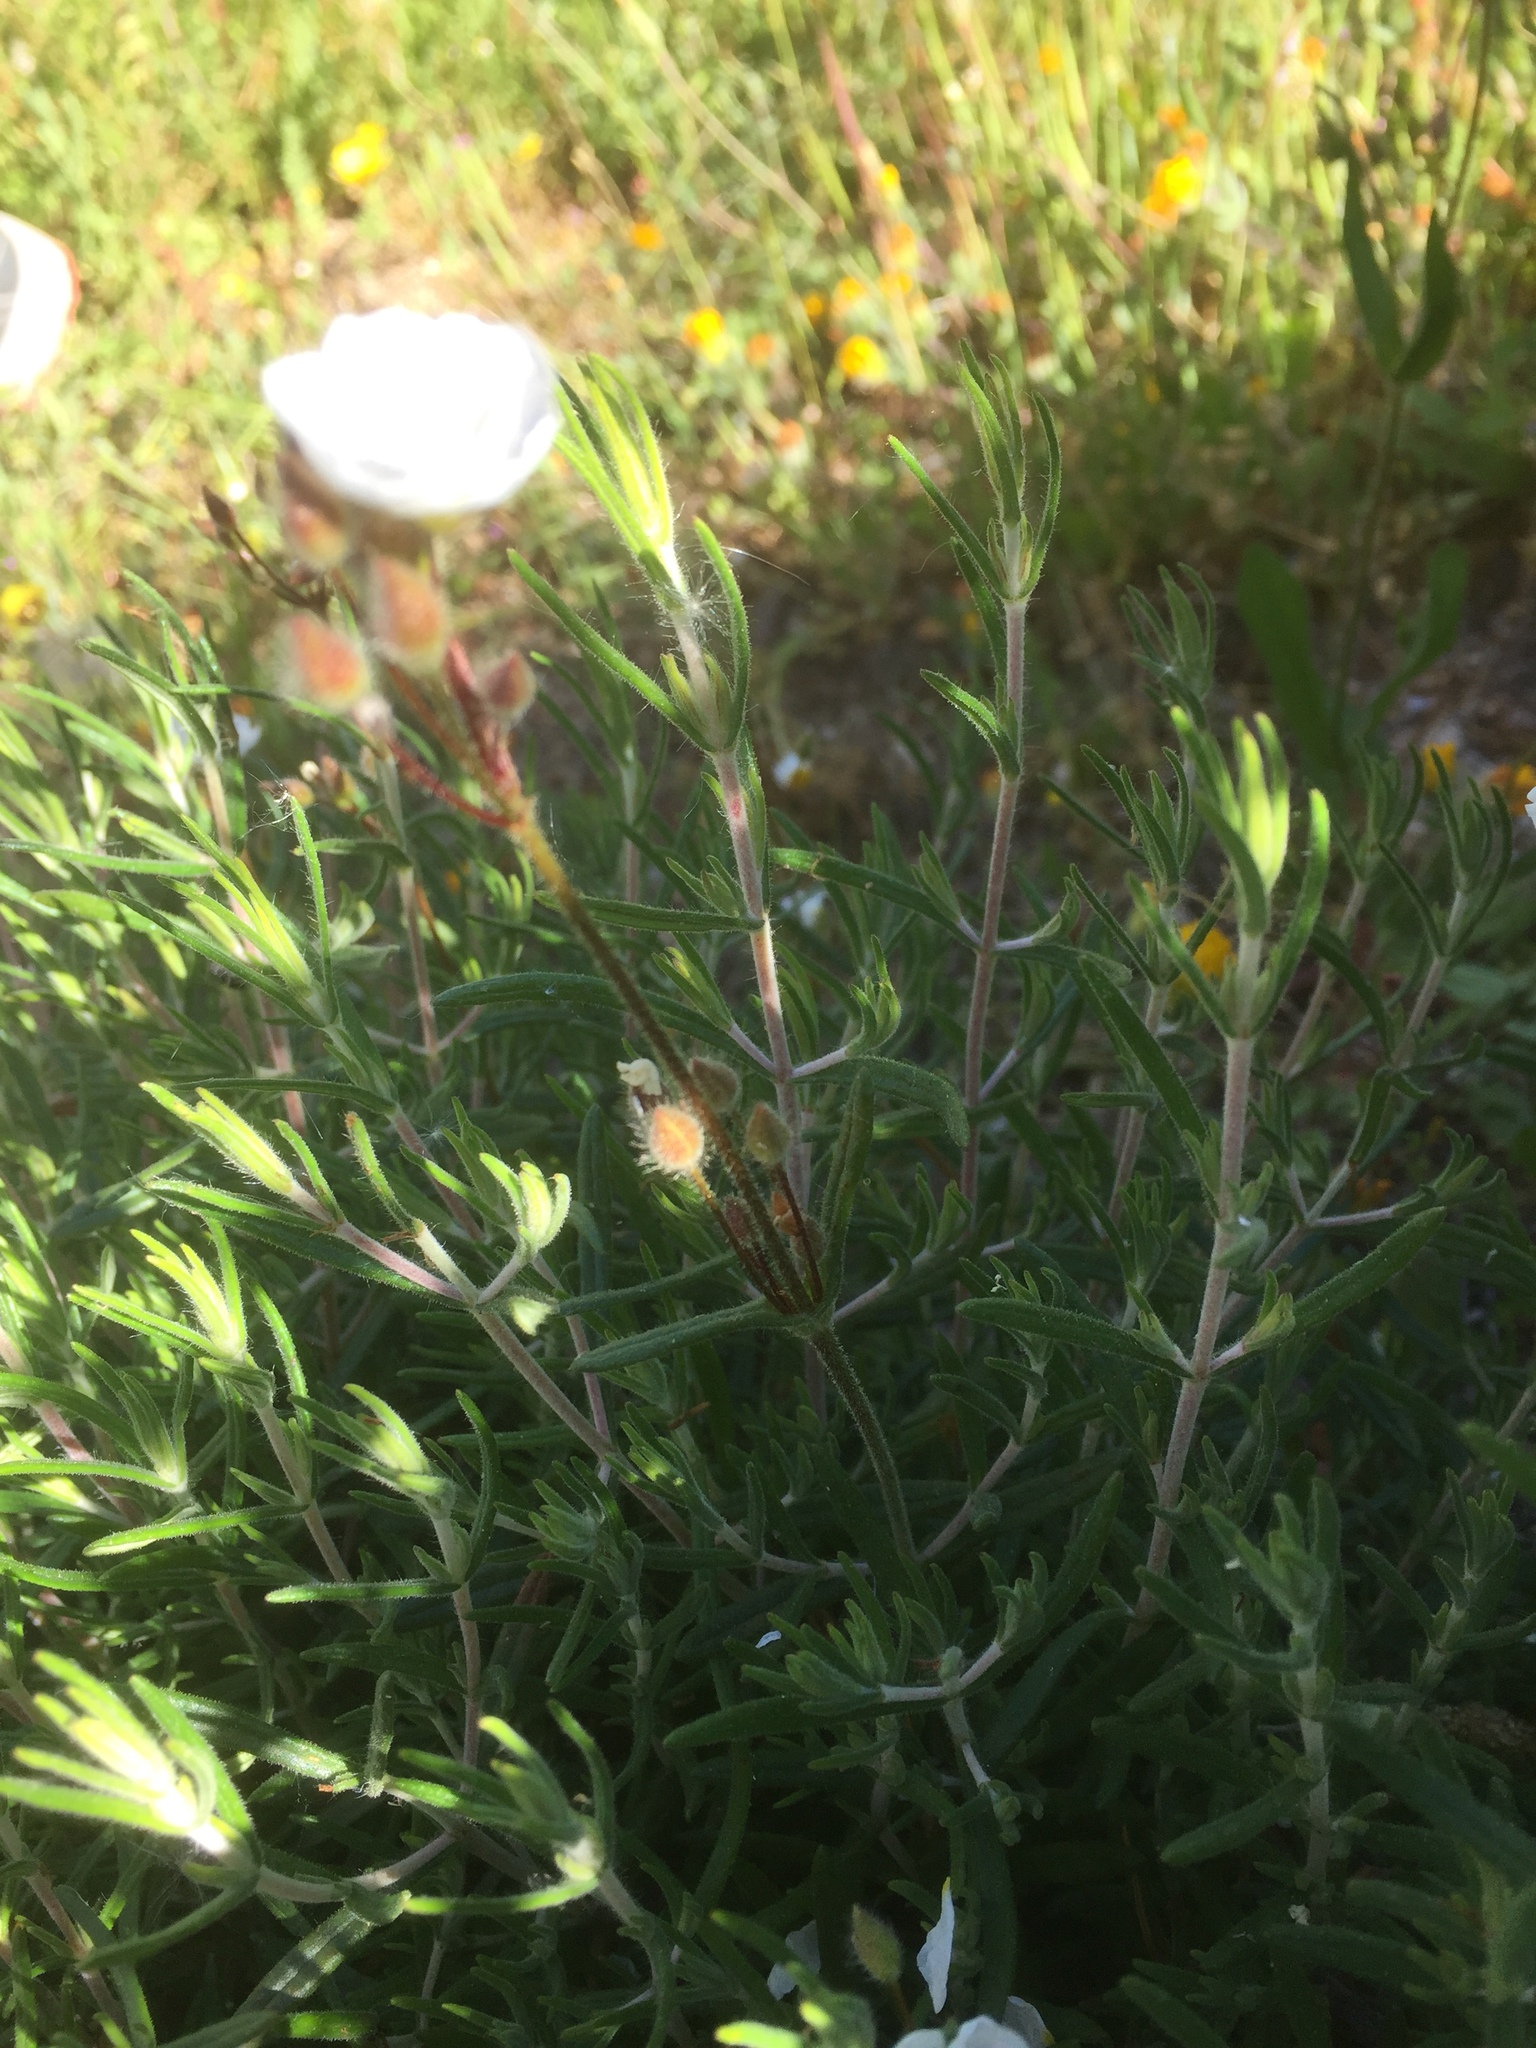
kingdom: Plantae
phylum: Tracheophyta
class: Magnoliopsida
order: Malvales
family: Cistaceae
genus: Halimium
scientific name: Halimium umbellatum
